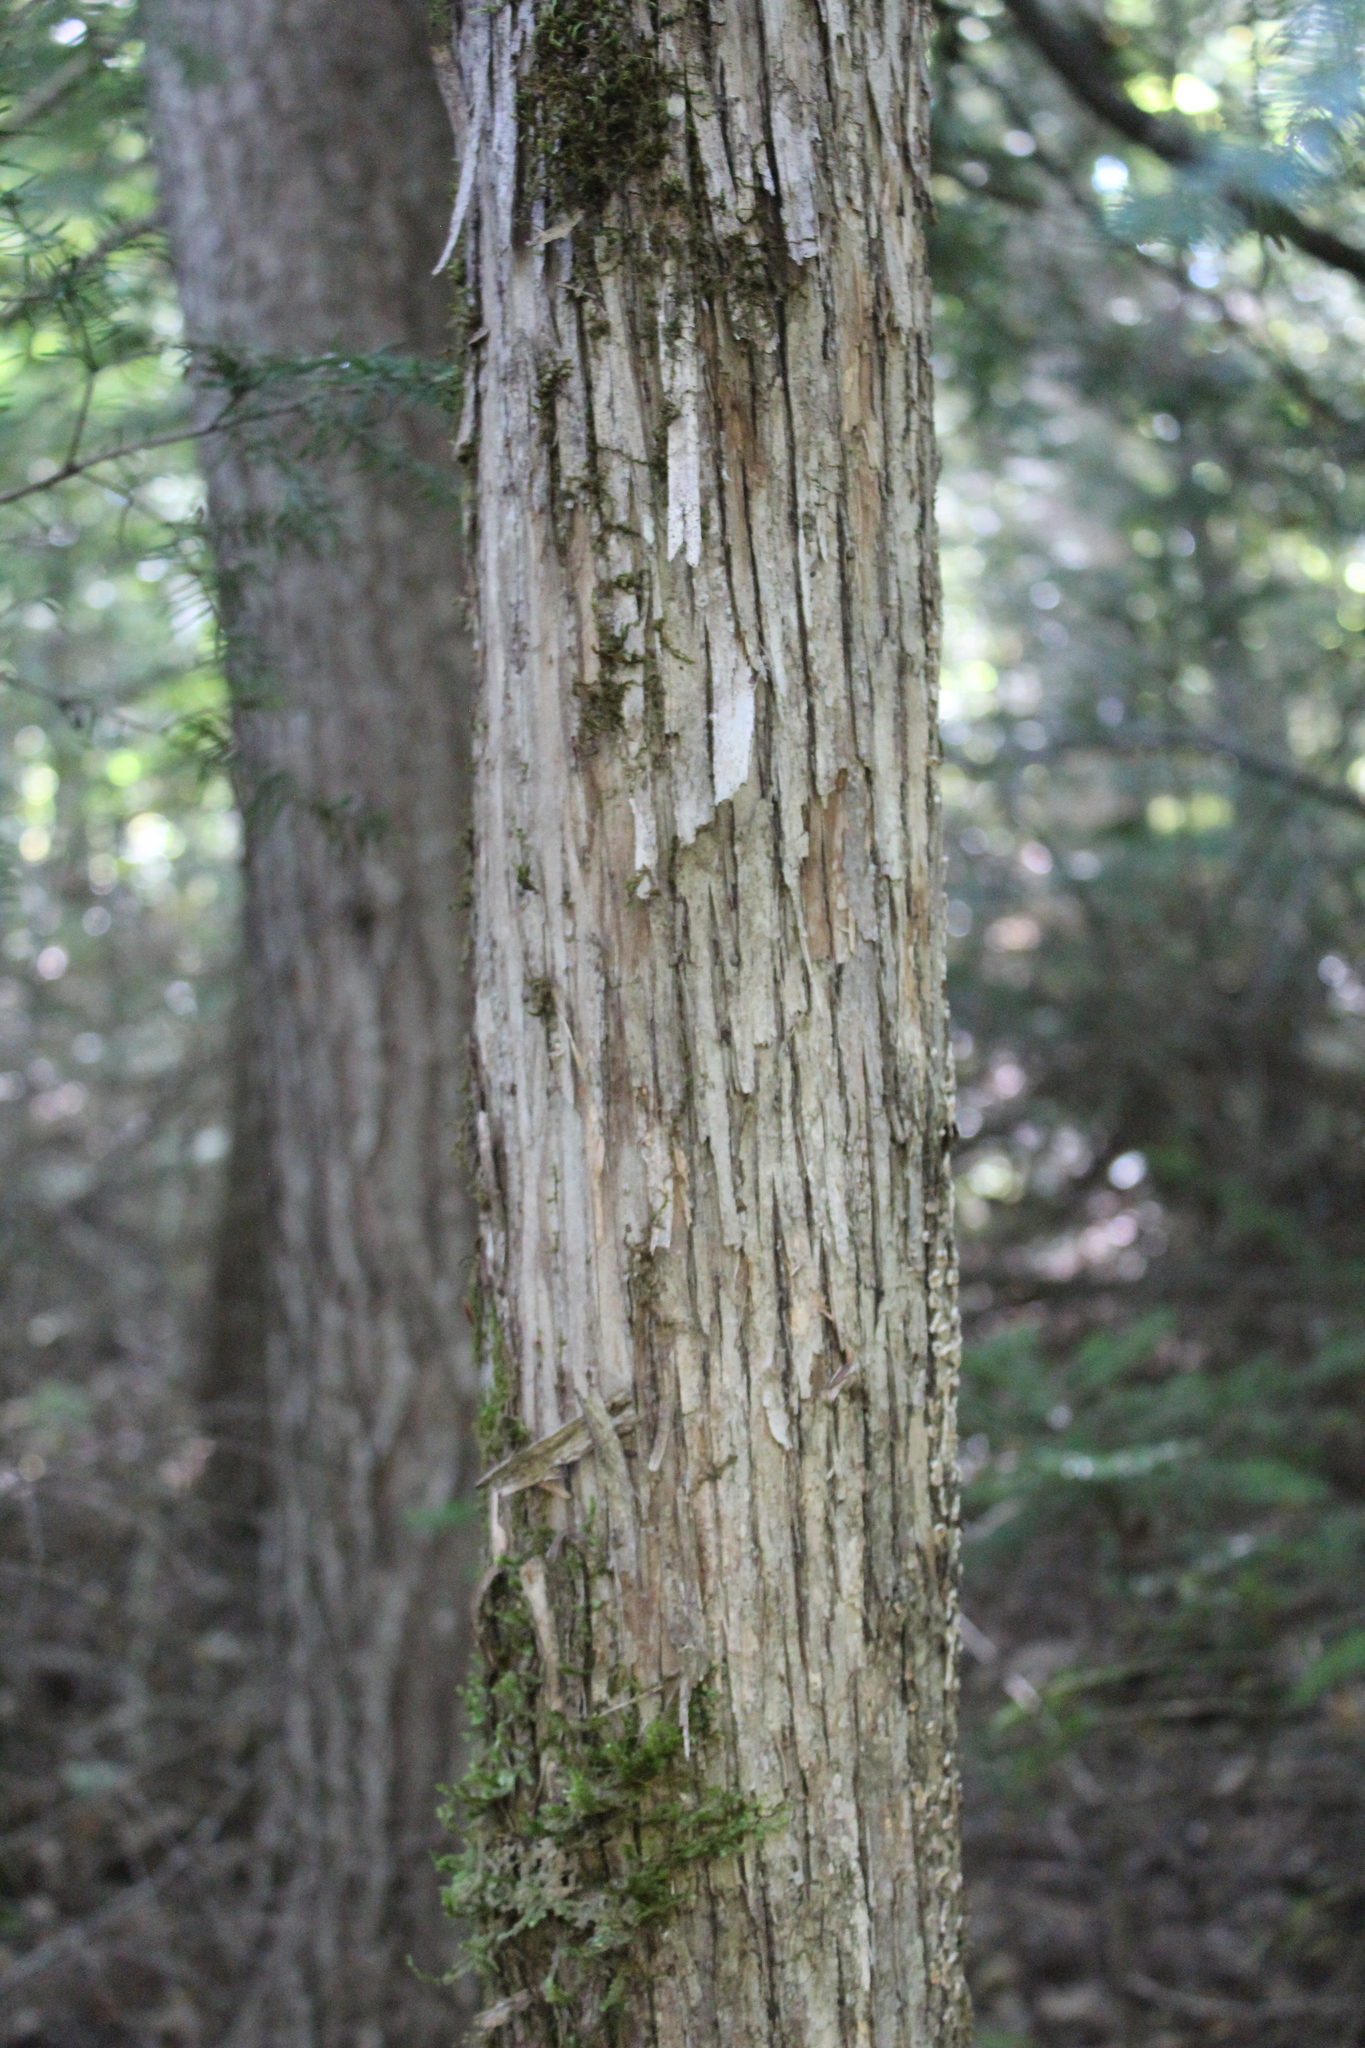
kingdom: Plantae
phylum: Tracheophyta
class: Magnoliopsida
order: Fagales
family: Betulaceae
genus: Ostrya
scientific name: Ostrya virginiana
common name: Ironwood
